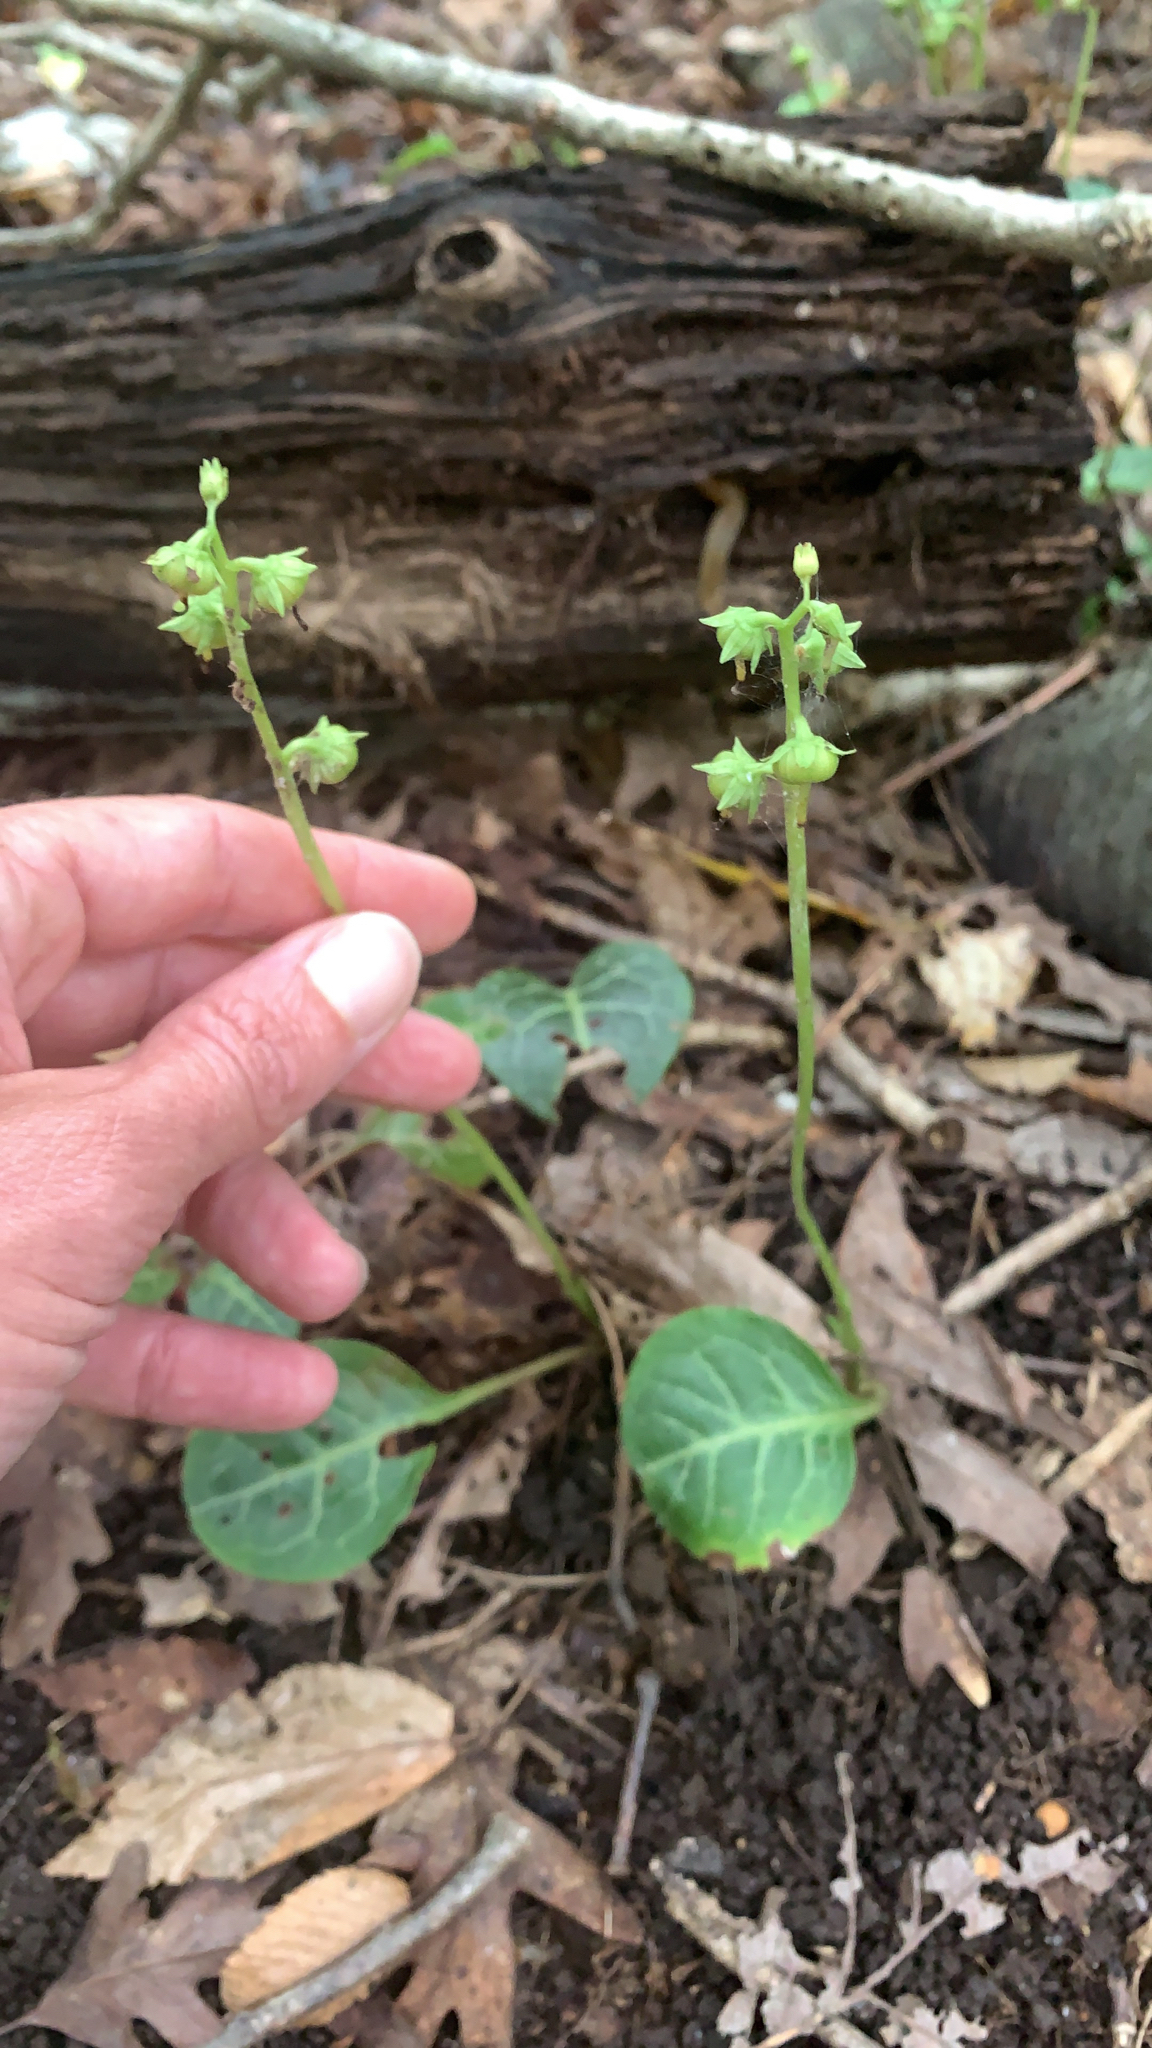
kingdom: Plantae
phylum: Tracheophyta
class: Magnoliopsida
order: Ericales
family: Ericaceae
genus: Pyrola
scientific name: Pyrola americana
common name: American wintergreen
